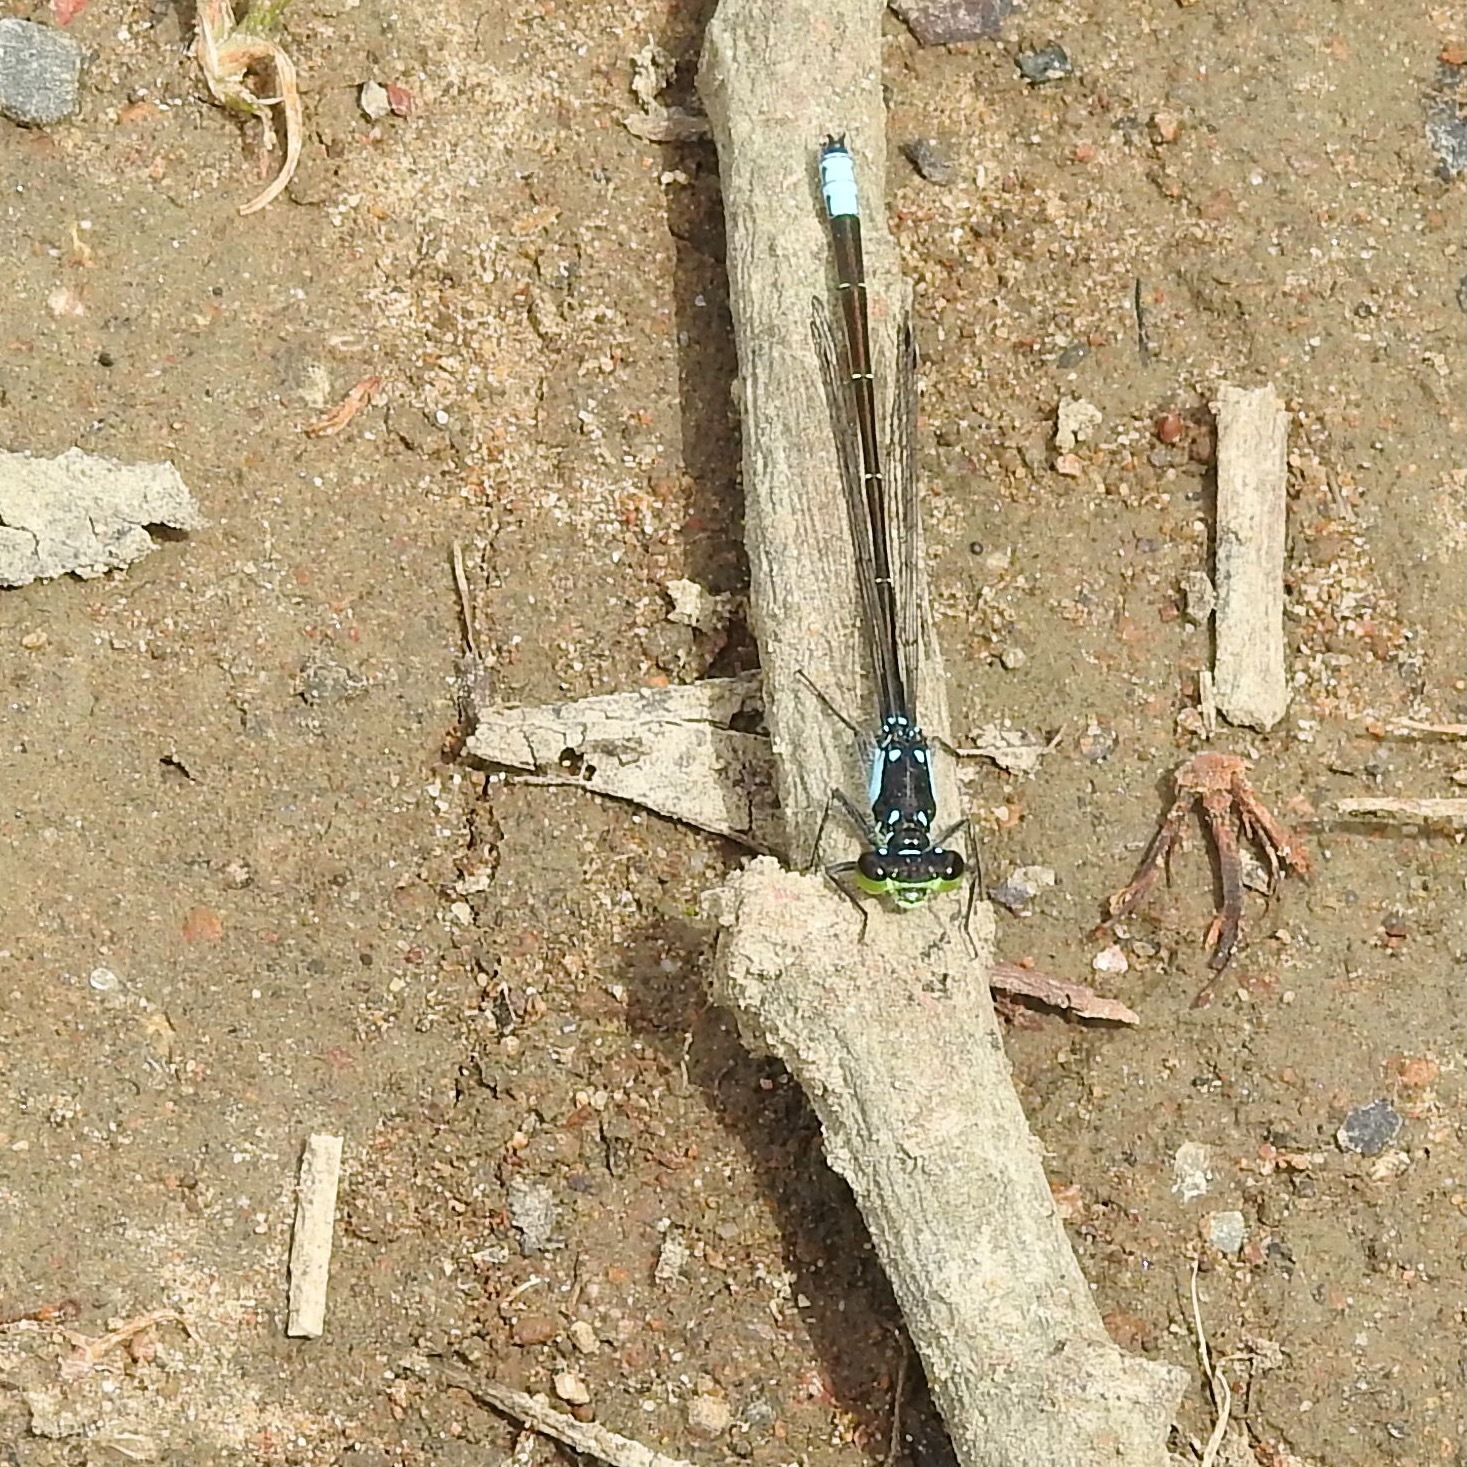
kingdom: Animalia
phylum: Arthropoda
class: Insecta
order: Odonata
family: Coenagrionidae
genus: Ischnura
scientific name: Ischnura cervula
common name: Pacific forktail
